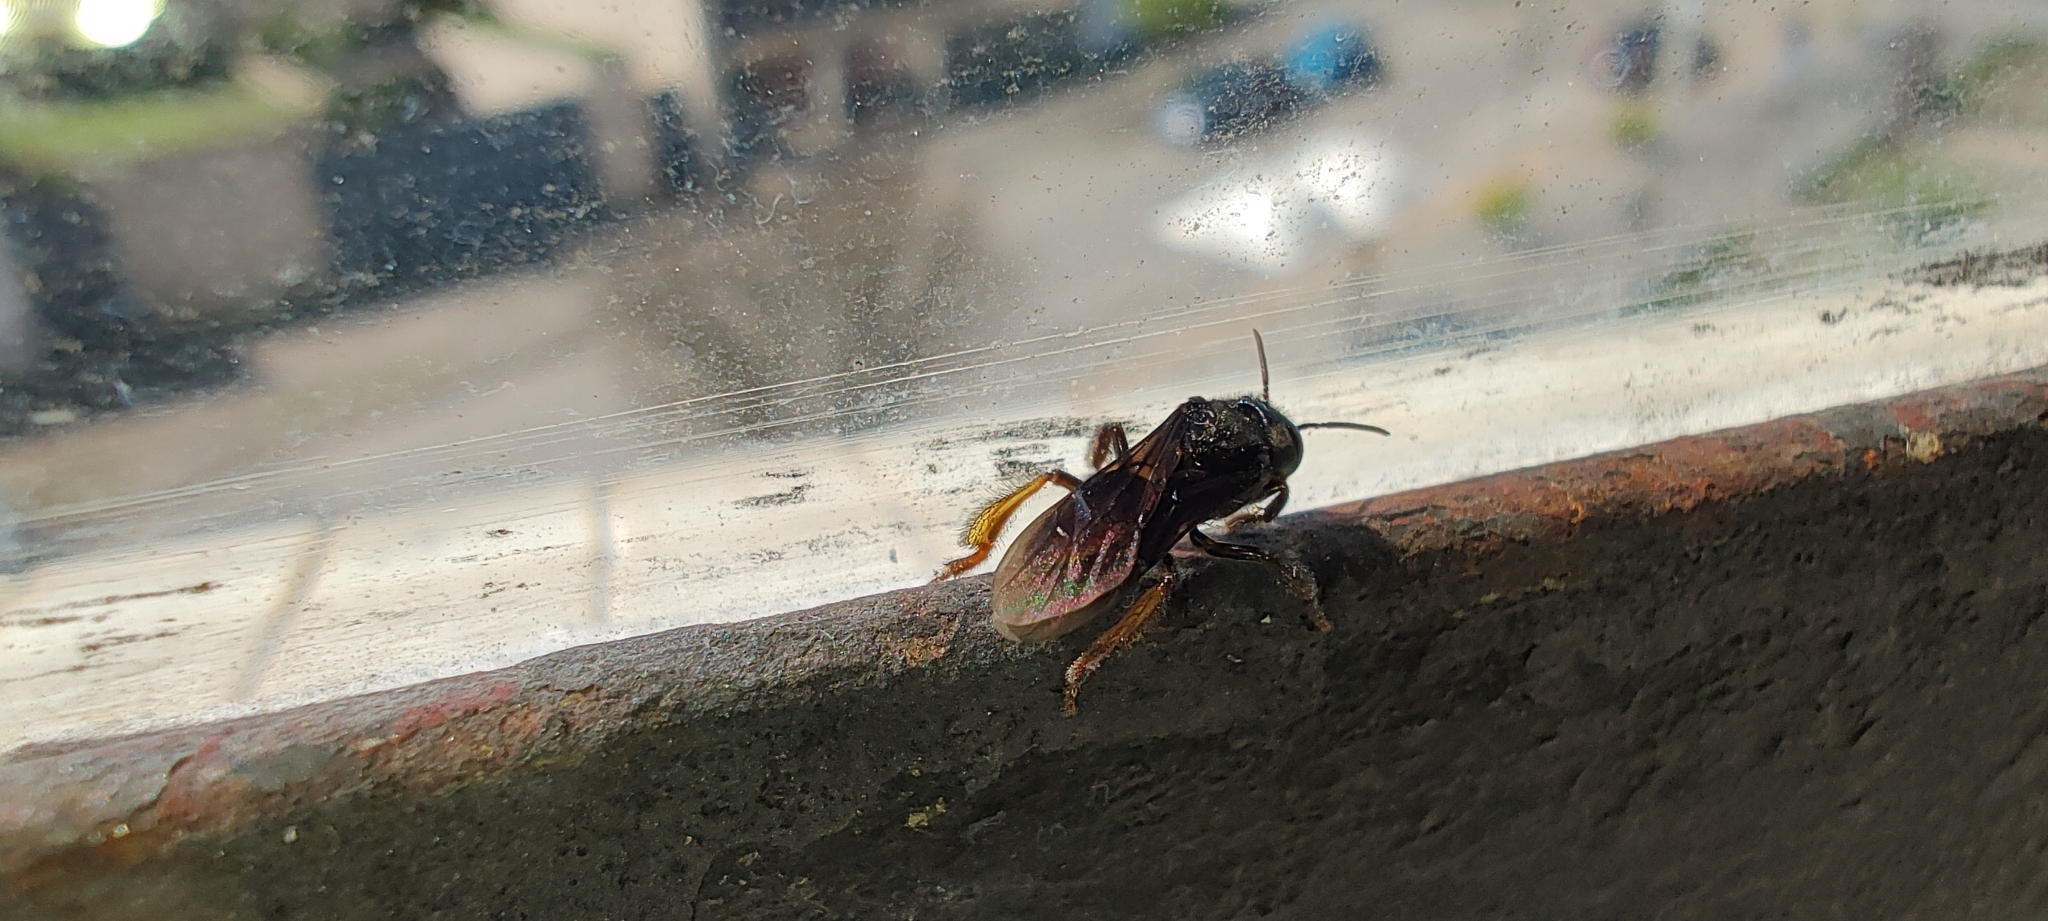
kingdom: Animalia
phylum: Arthropoda
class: Insecta
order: Hymenoptera
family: Apidae
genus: Trigona
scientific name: Trigona spinipes
